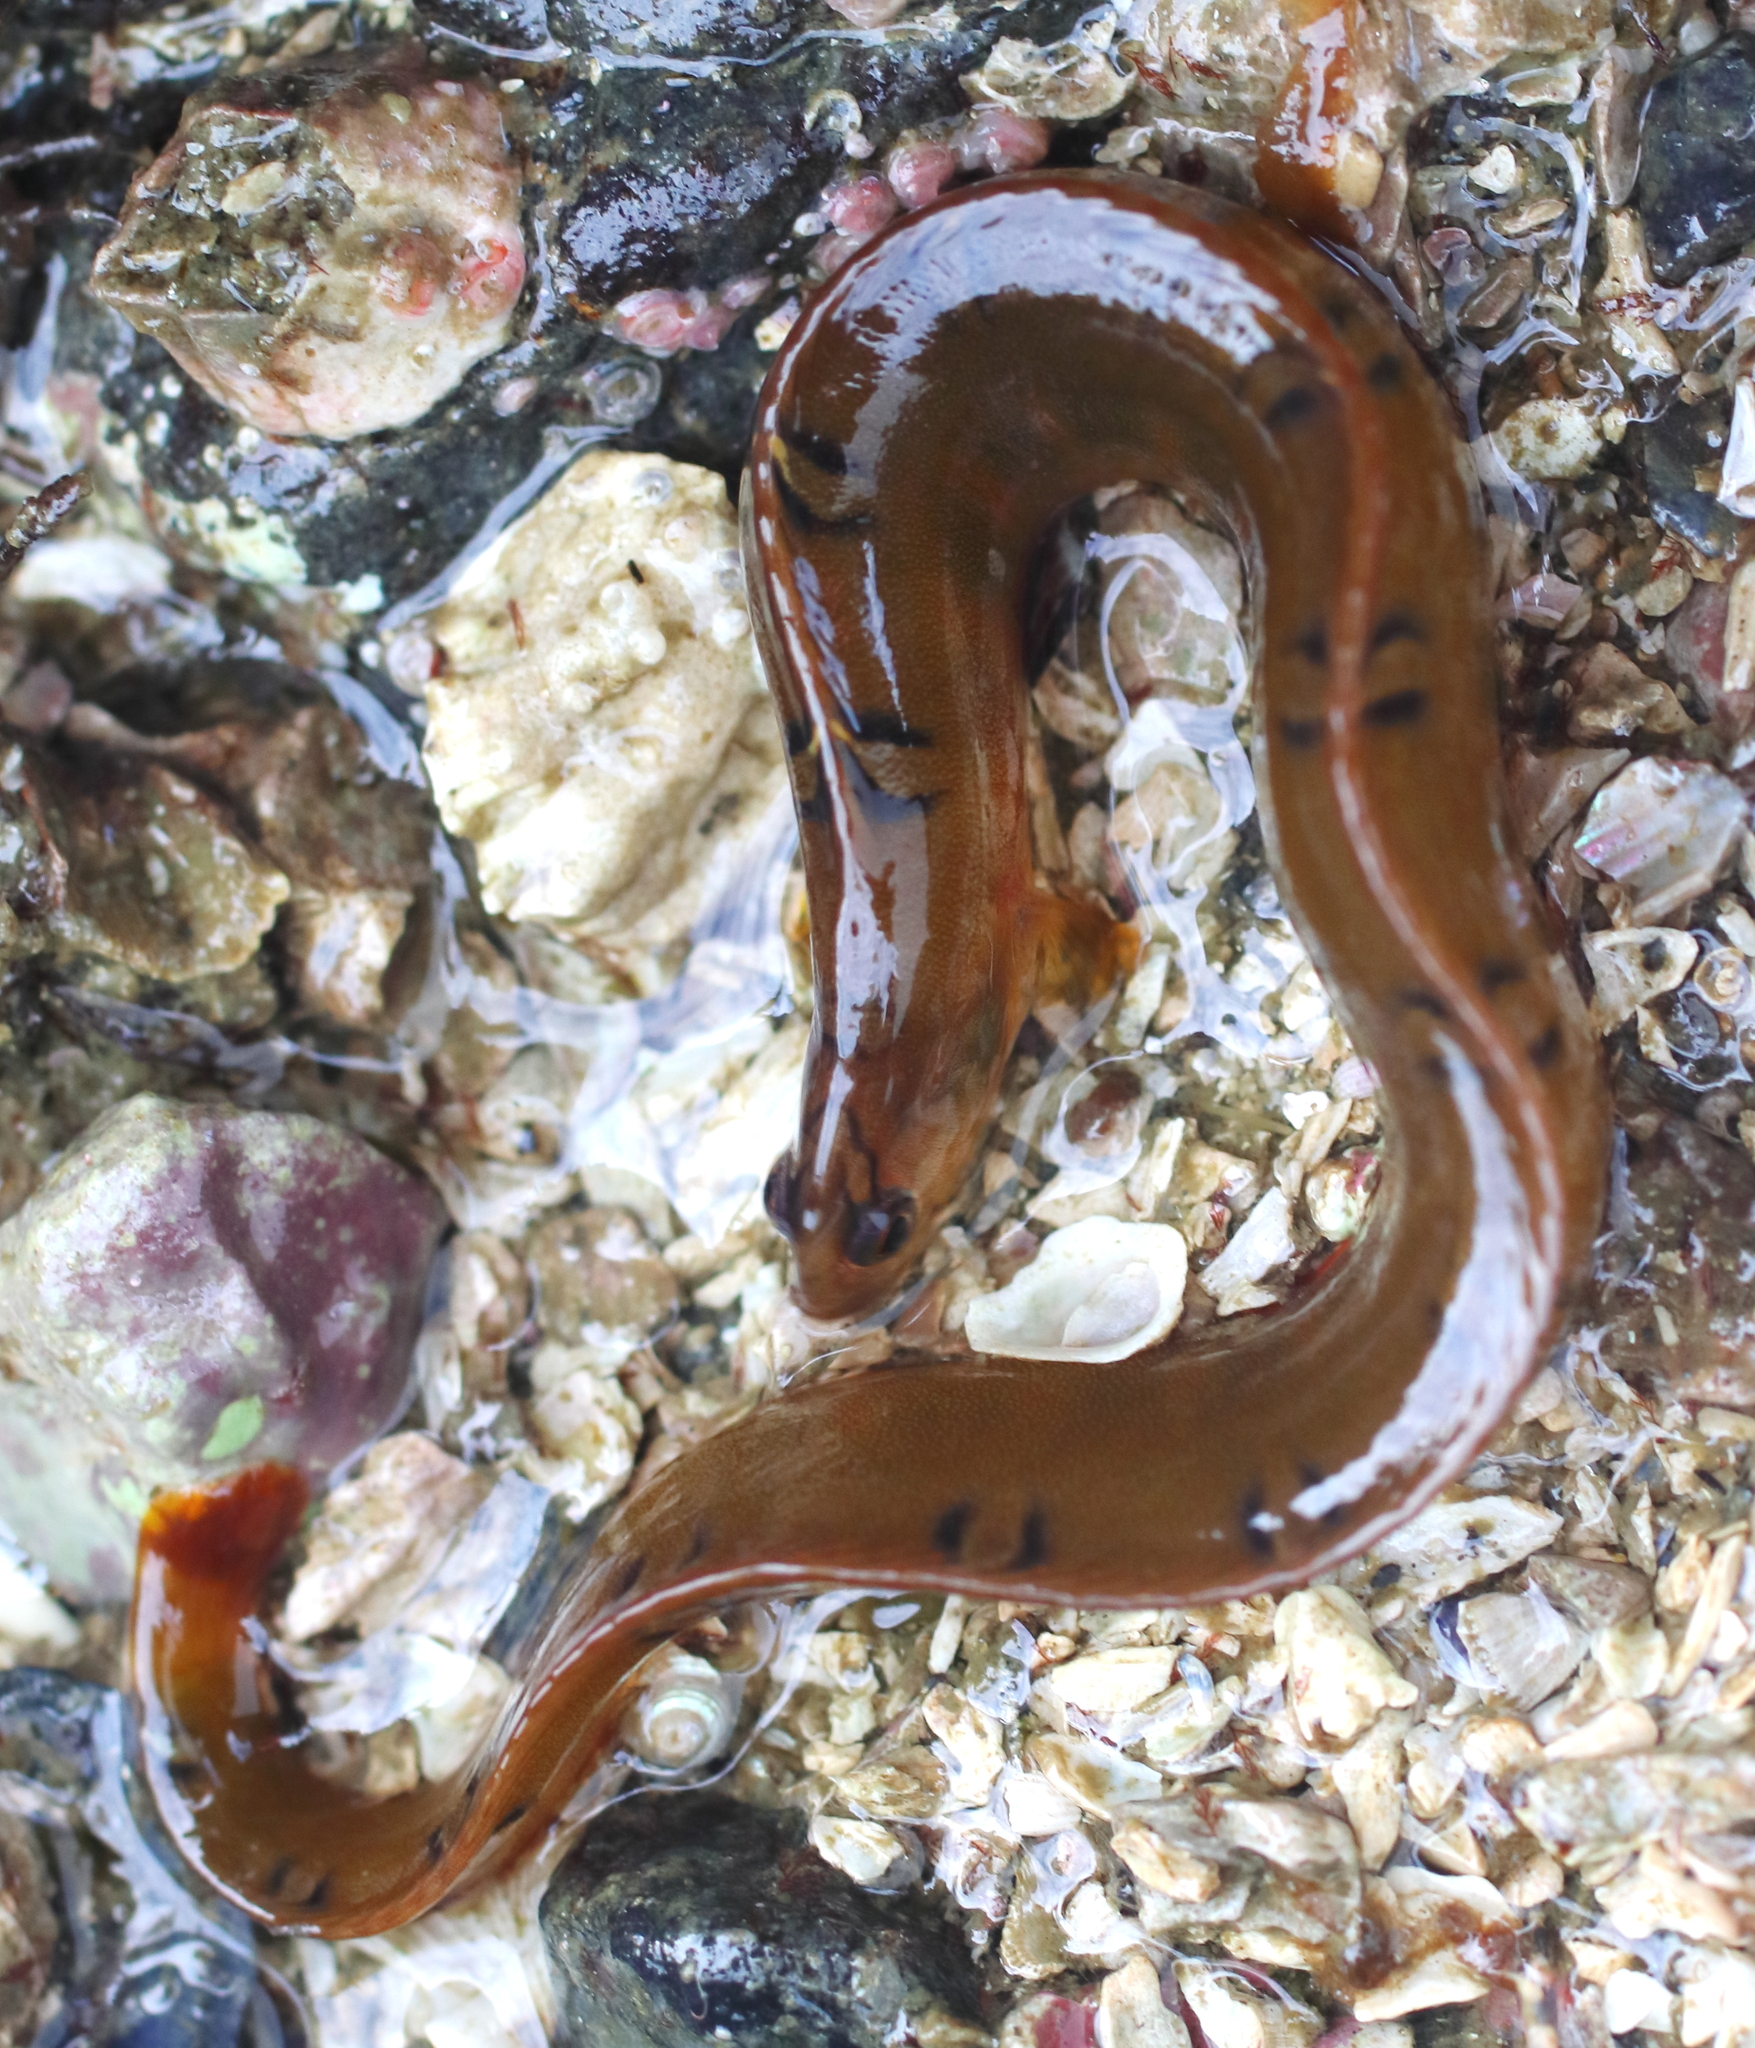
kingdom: Animalia
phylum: Chordata
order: Perciformes
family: Pholidae
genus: Pholis
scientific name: Pholis laeta
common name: Crescent gunnel
